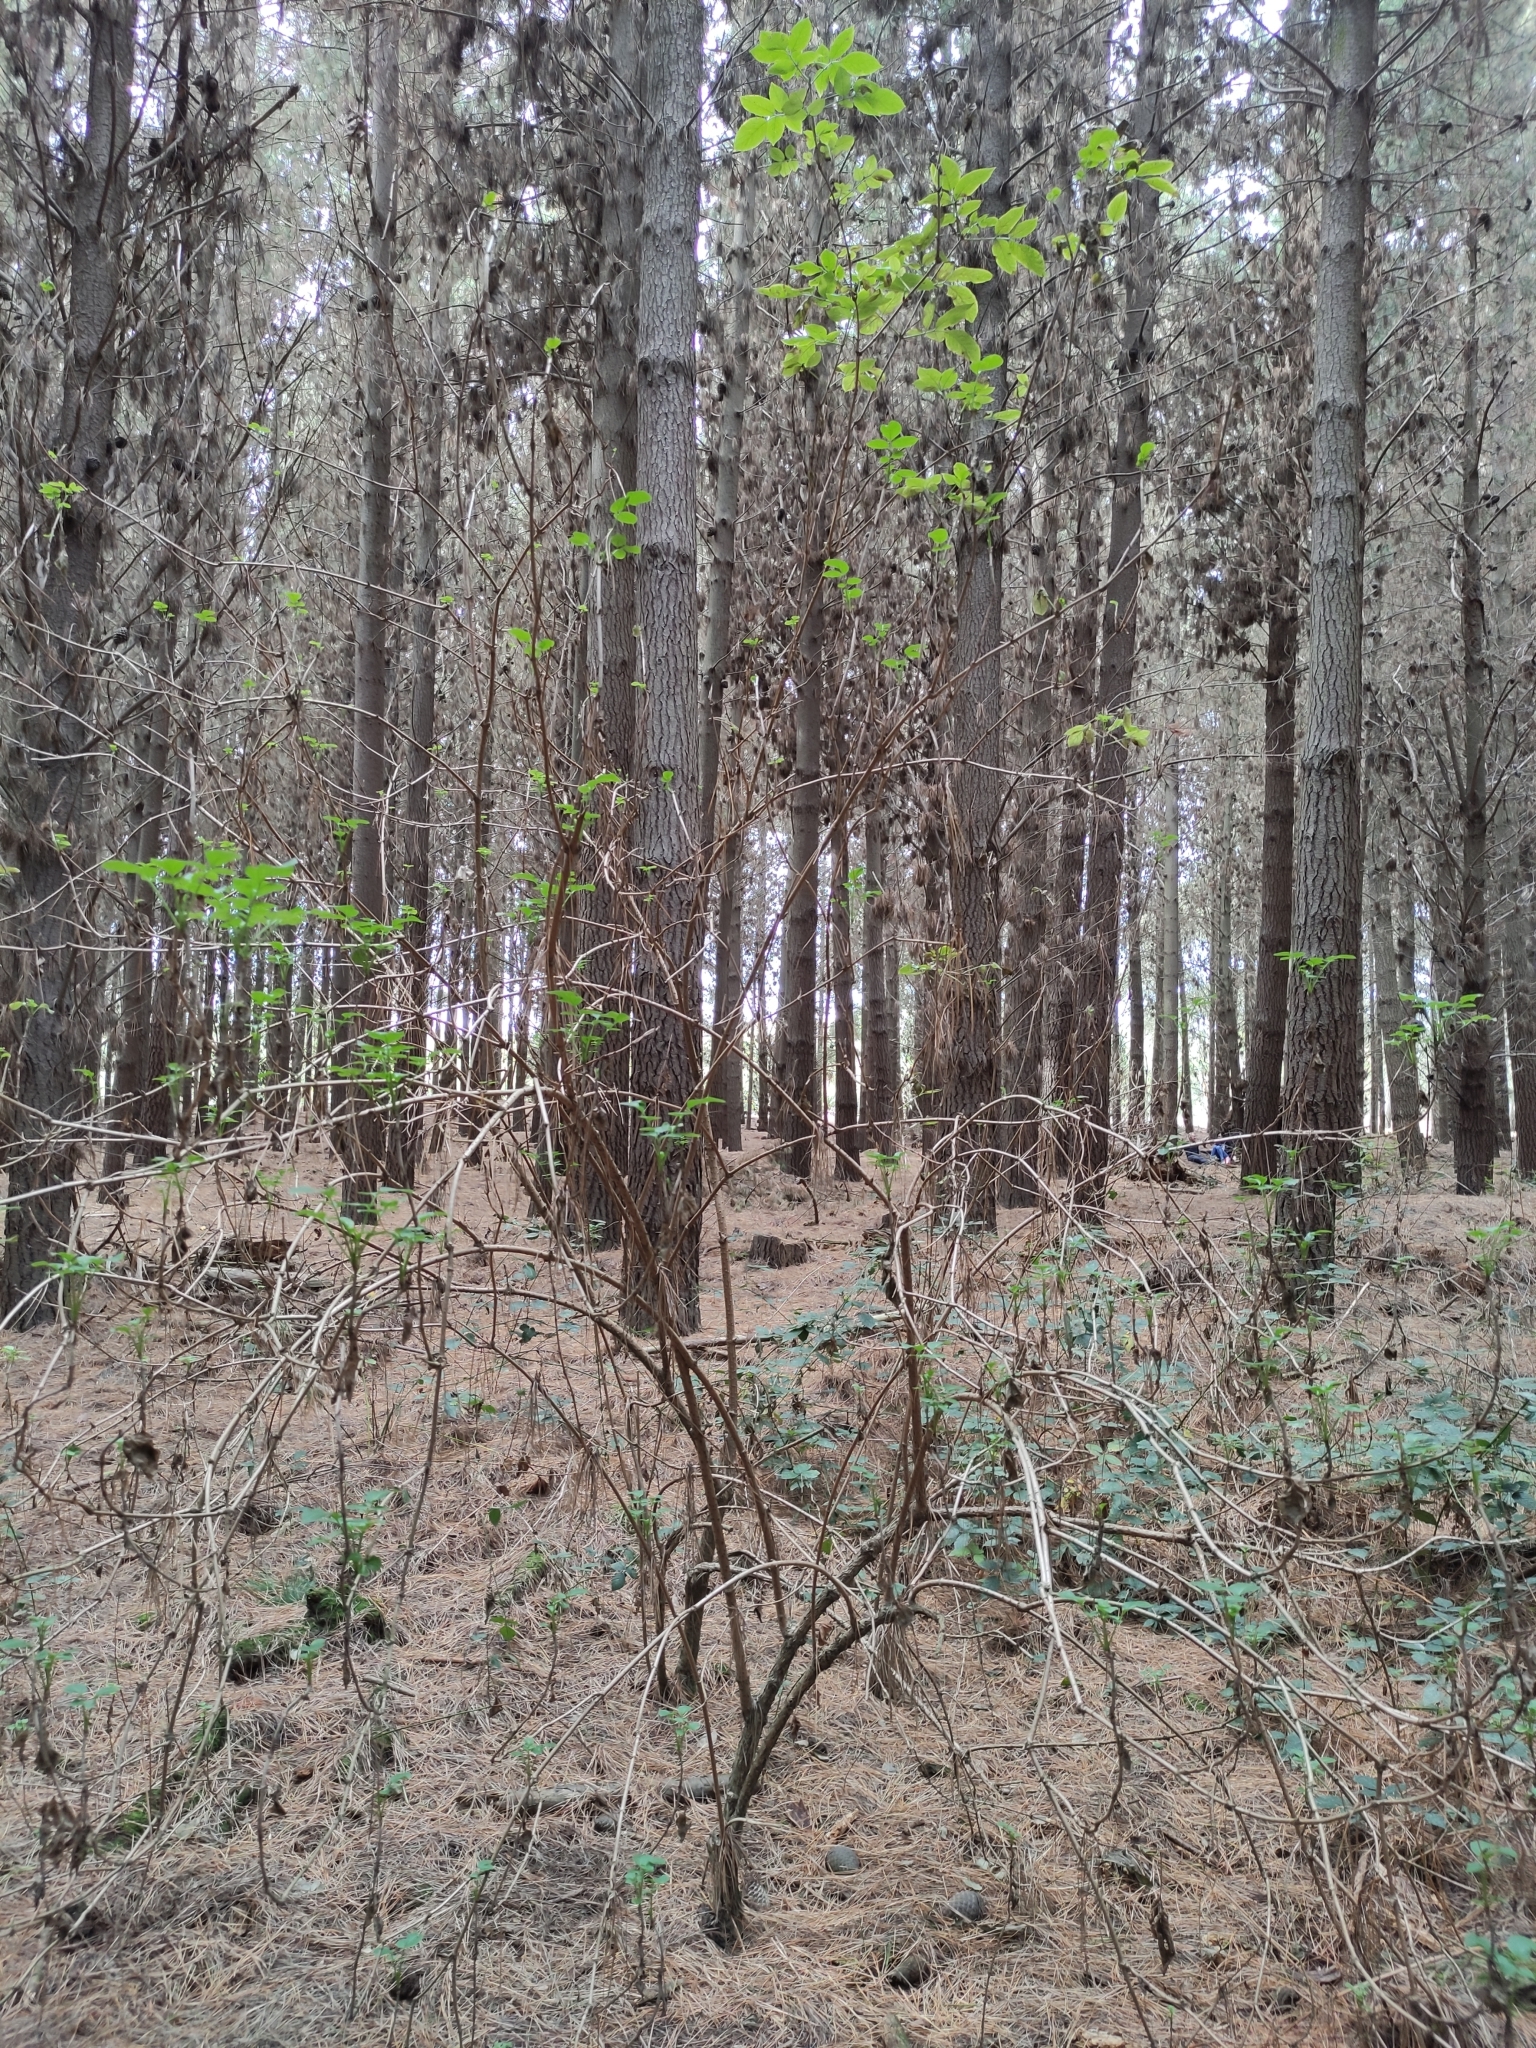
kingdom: Plantae
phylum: Tracheophyta
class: Magnoliopsida
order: Dipsacales
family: Viburnaceae
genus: Sambucus
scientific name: Sambucus nigra
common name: Elder
